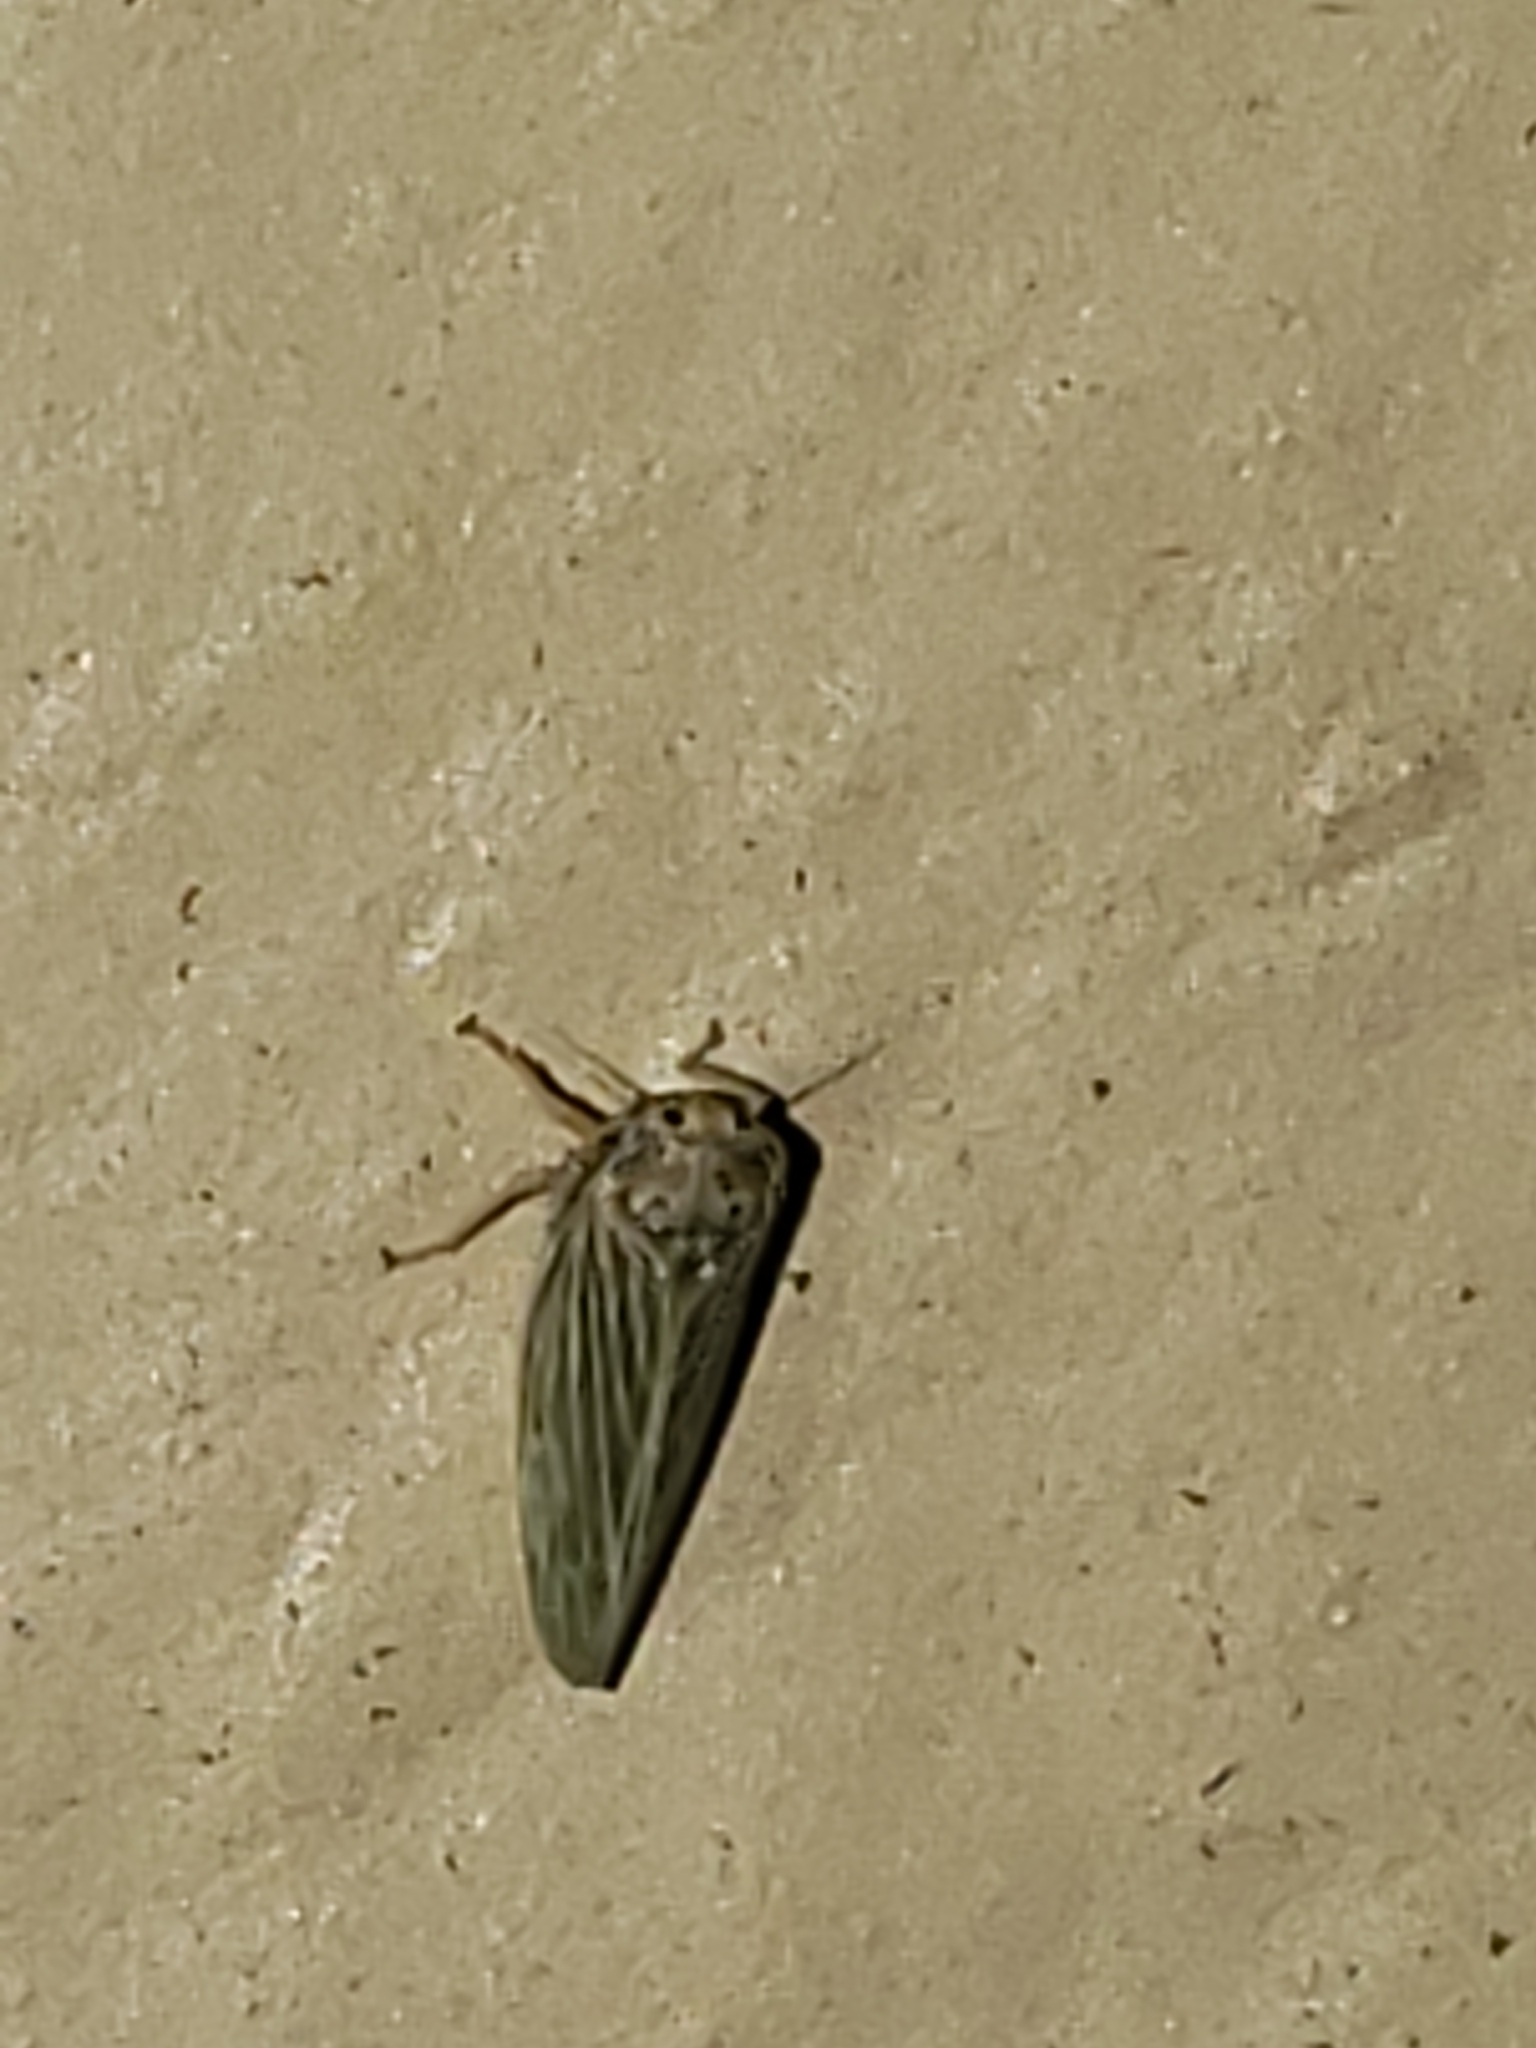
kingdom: Animalia
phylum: Arthropoda
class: Insecta
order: Hemiptera
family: Cicadellidae
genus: Agallia
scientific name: Agallia constricta
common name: The constricted leafhopper
